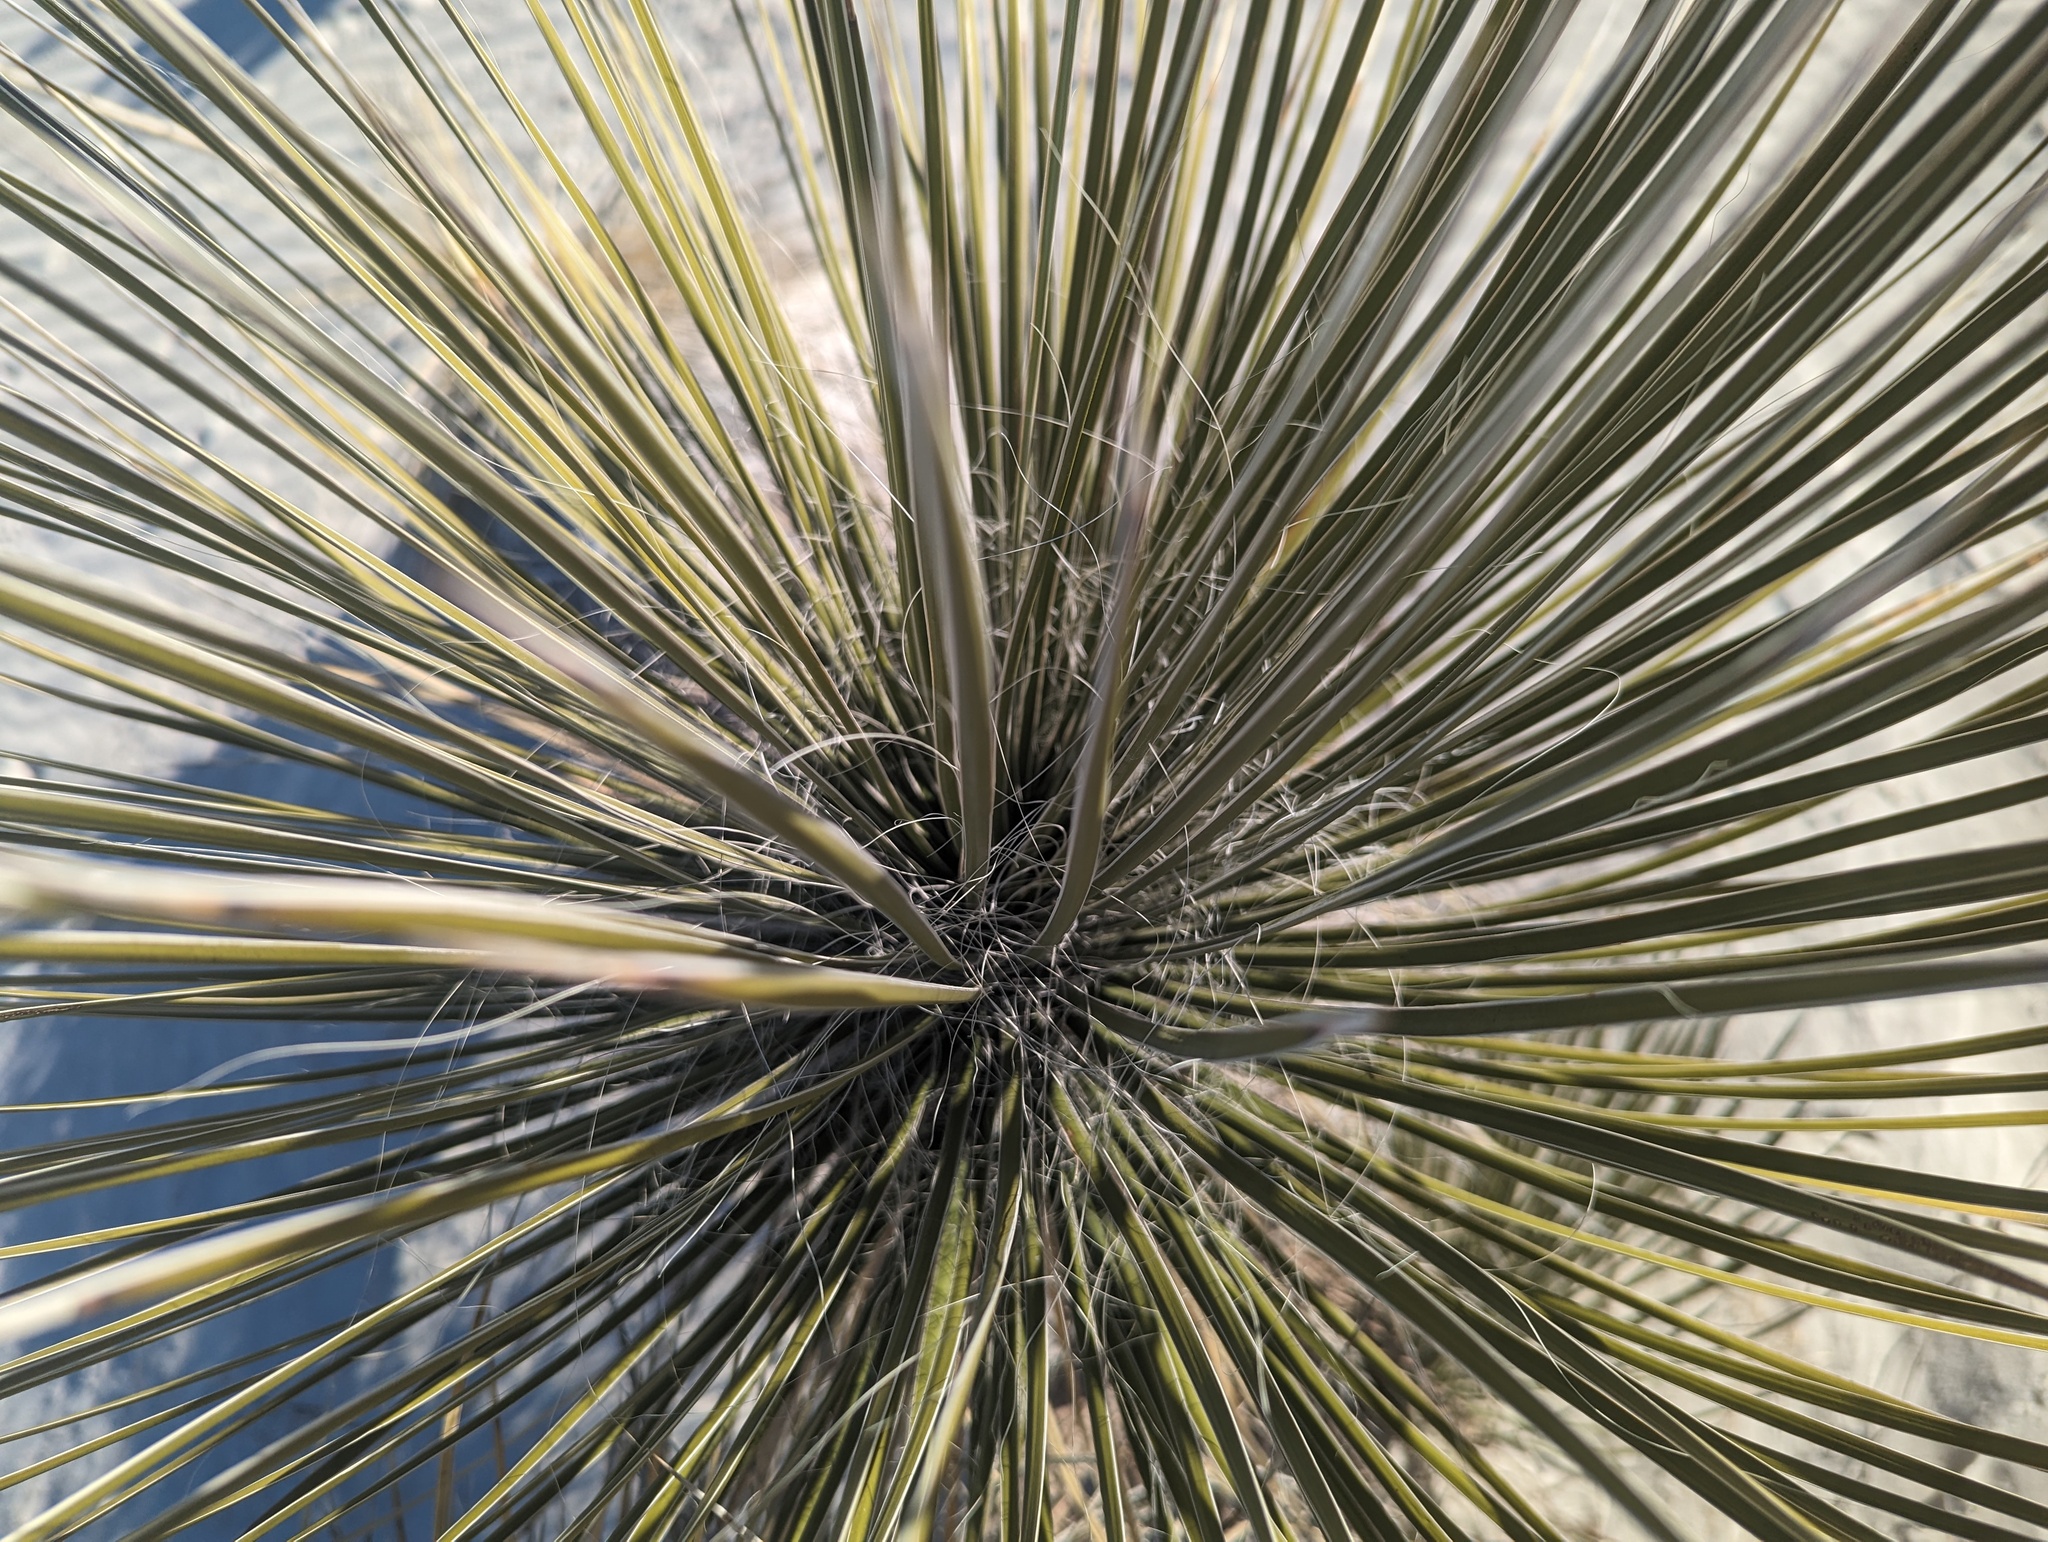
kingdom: Plantae
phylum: Tracheophyta
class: Liliopsida
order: Asparagales
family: Asparagaceae
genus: Yucca
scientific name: Yucca elata
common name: Palmella
